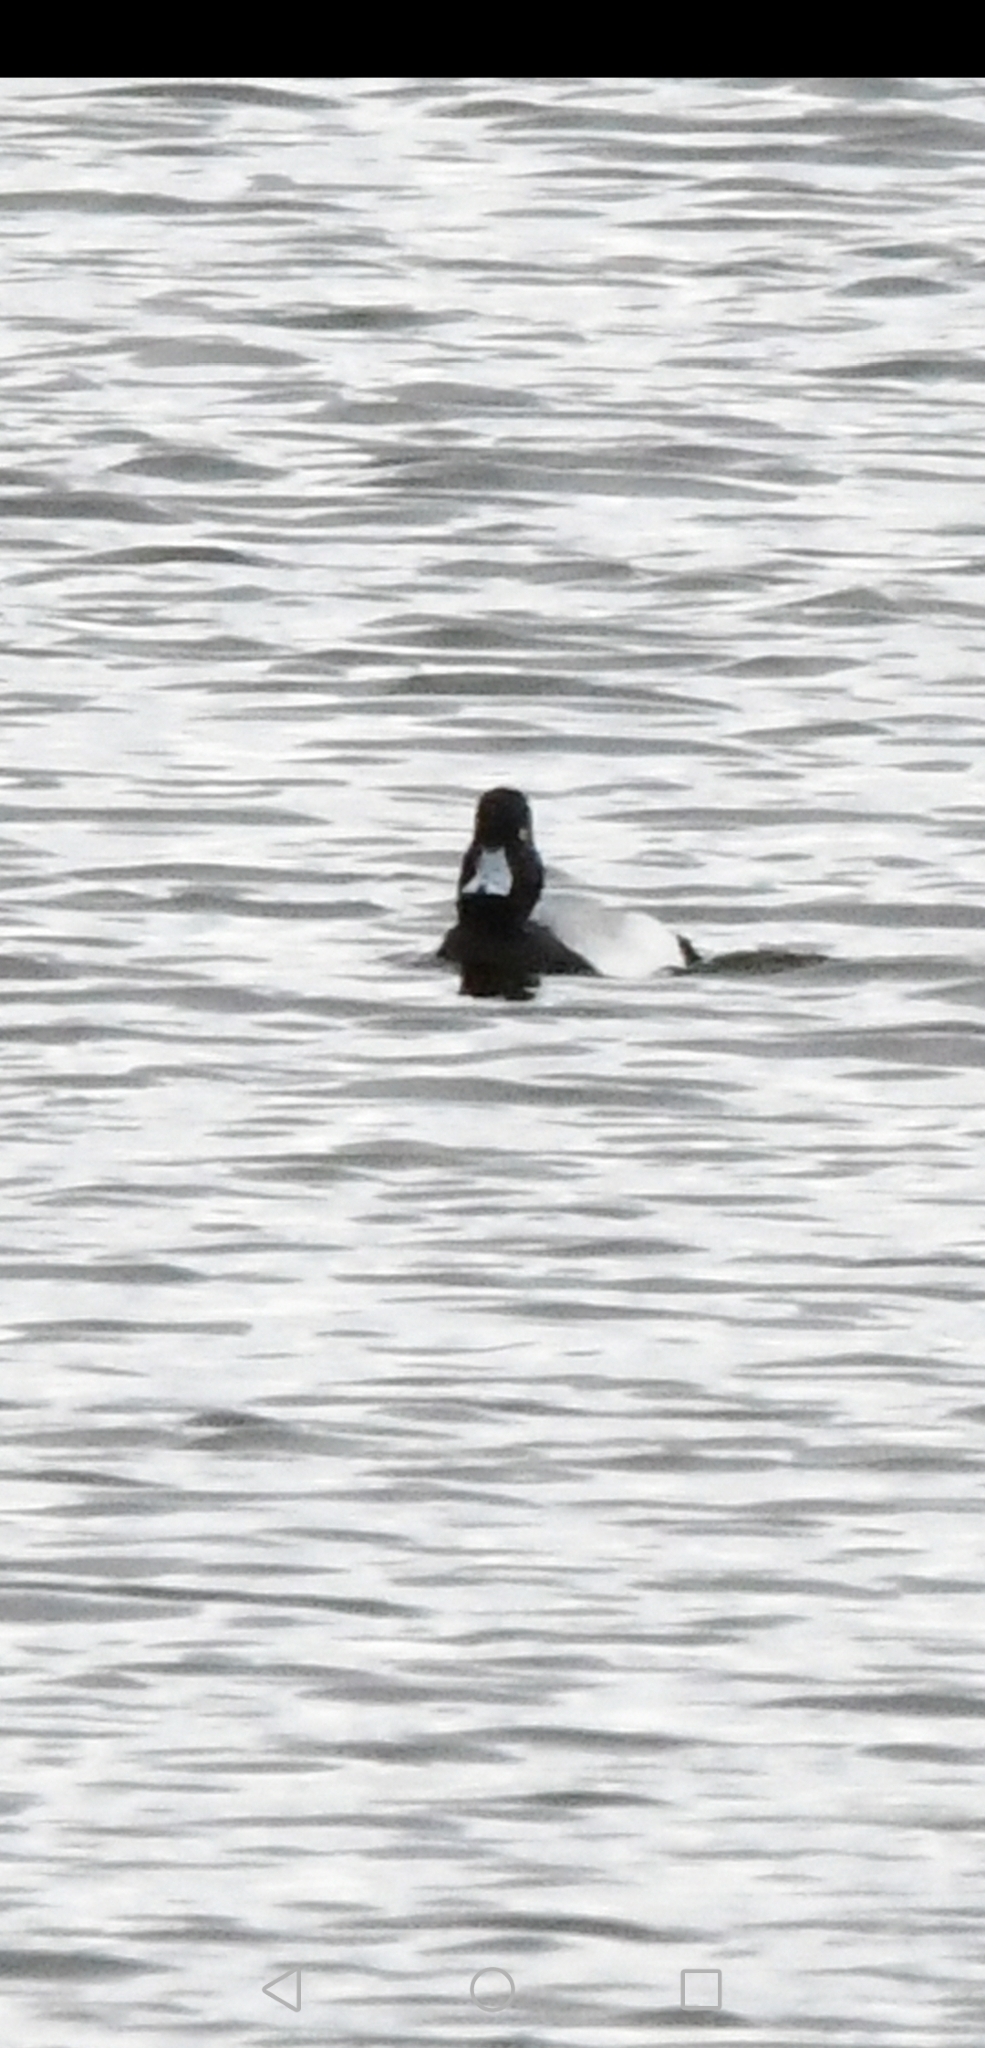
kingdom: Animalia
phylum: Chordata
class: Aves
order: Anseriformes
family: Anatidae
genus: Aythya
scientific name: Aythya affinis
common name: Lesser scaup
